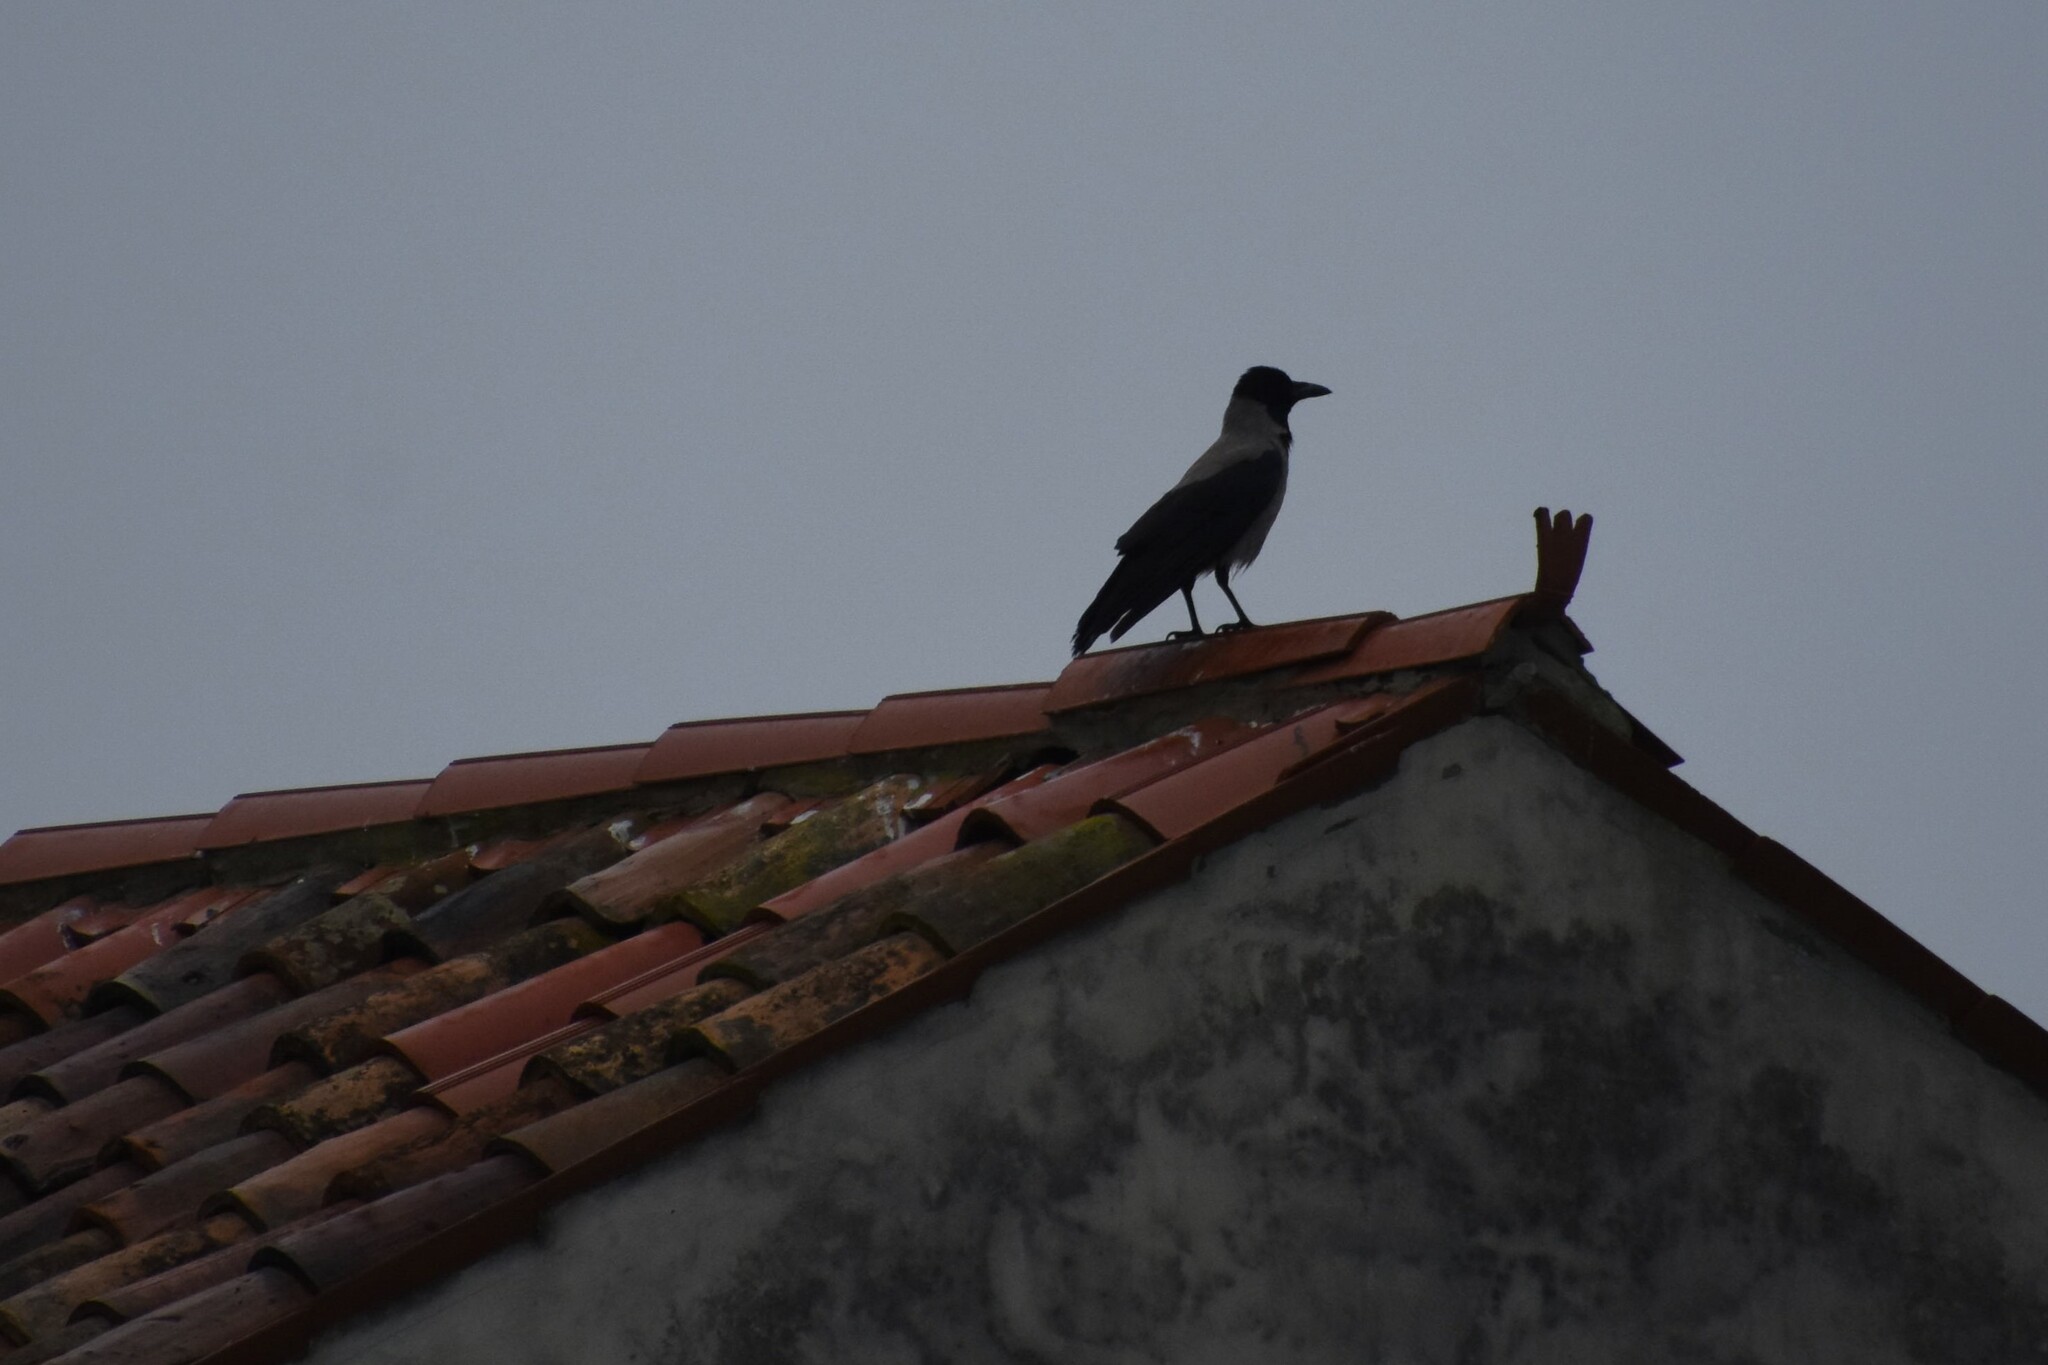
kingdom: Animalia
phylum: Chordata
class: Aves
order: Passeriformes
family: Corvidae
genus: Corvus
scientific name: Corvus cornix
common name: Hooded crow
